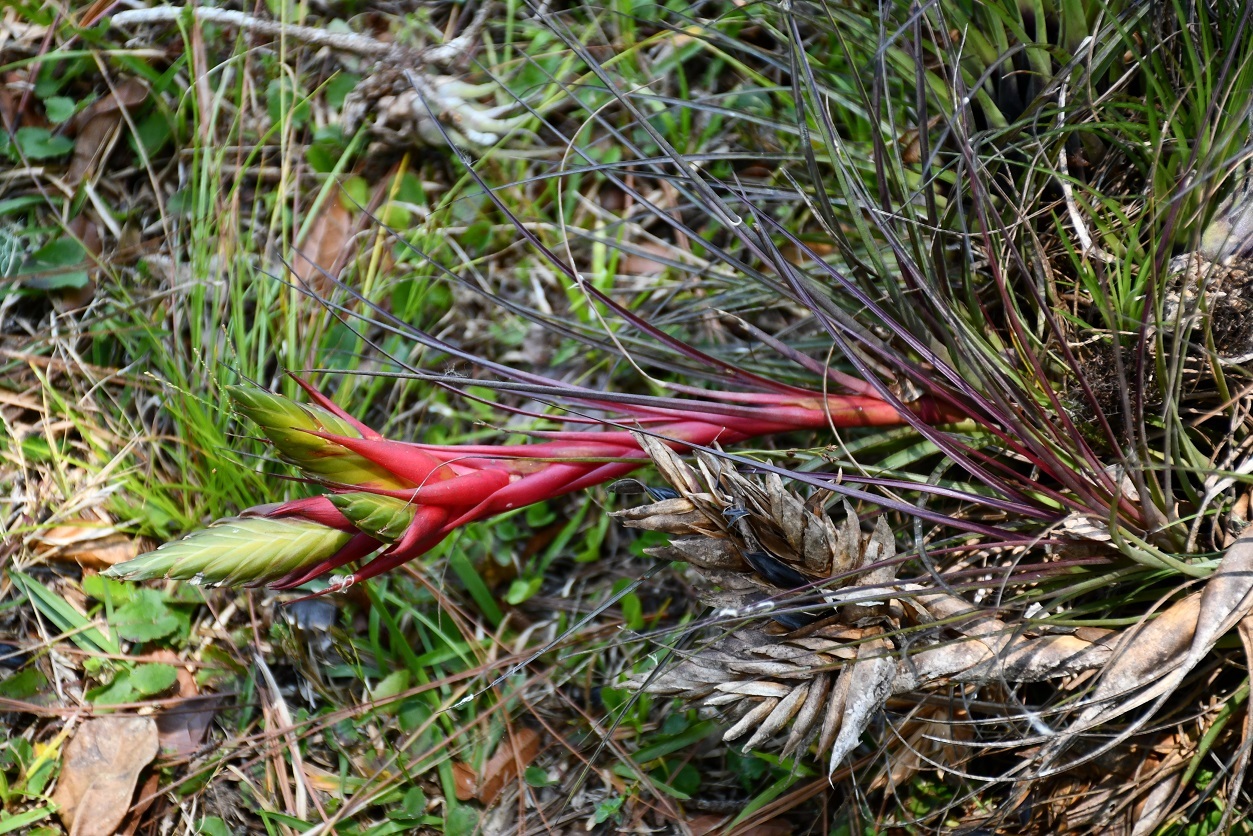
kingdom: Plantae
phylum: Tracheophyta
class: Liliopsida
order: Poales
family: Bromeliaceae
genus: Tillandsia
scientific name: Tillandsia punctulata
